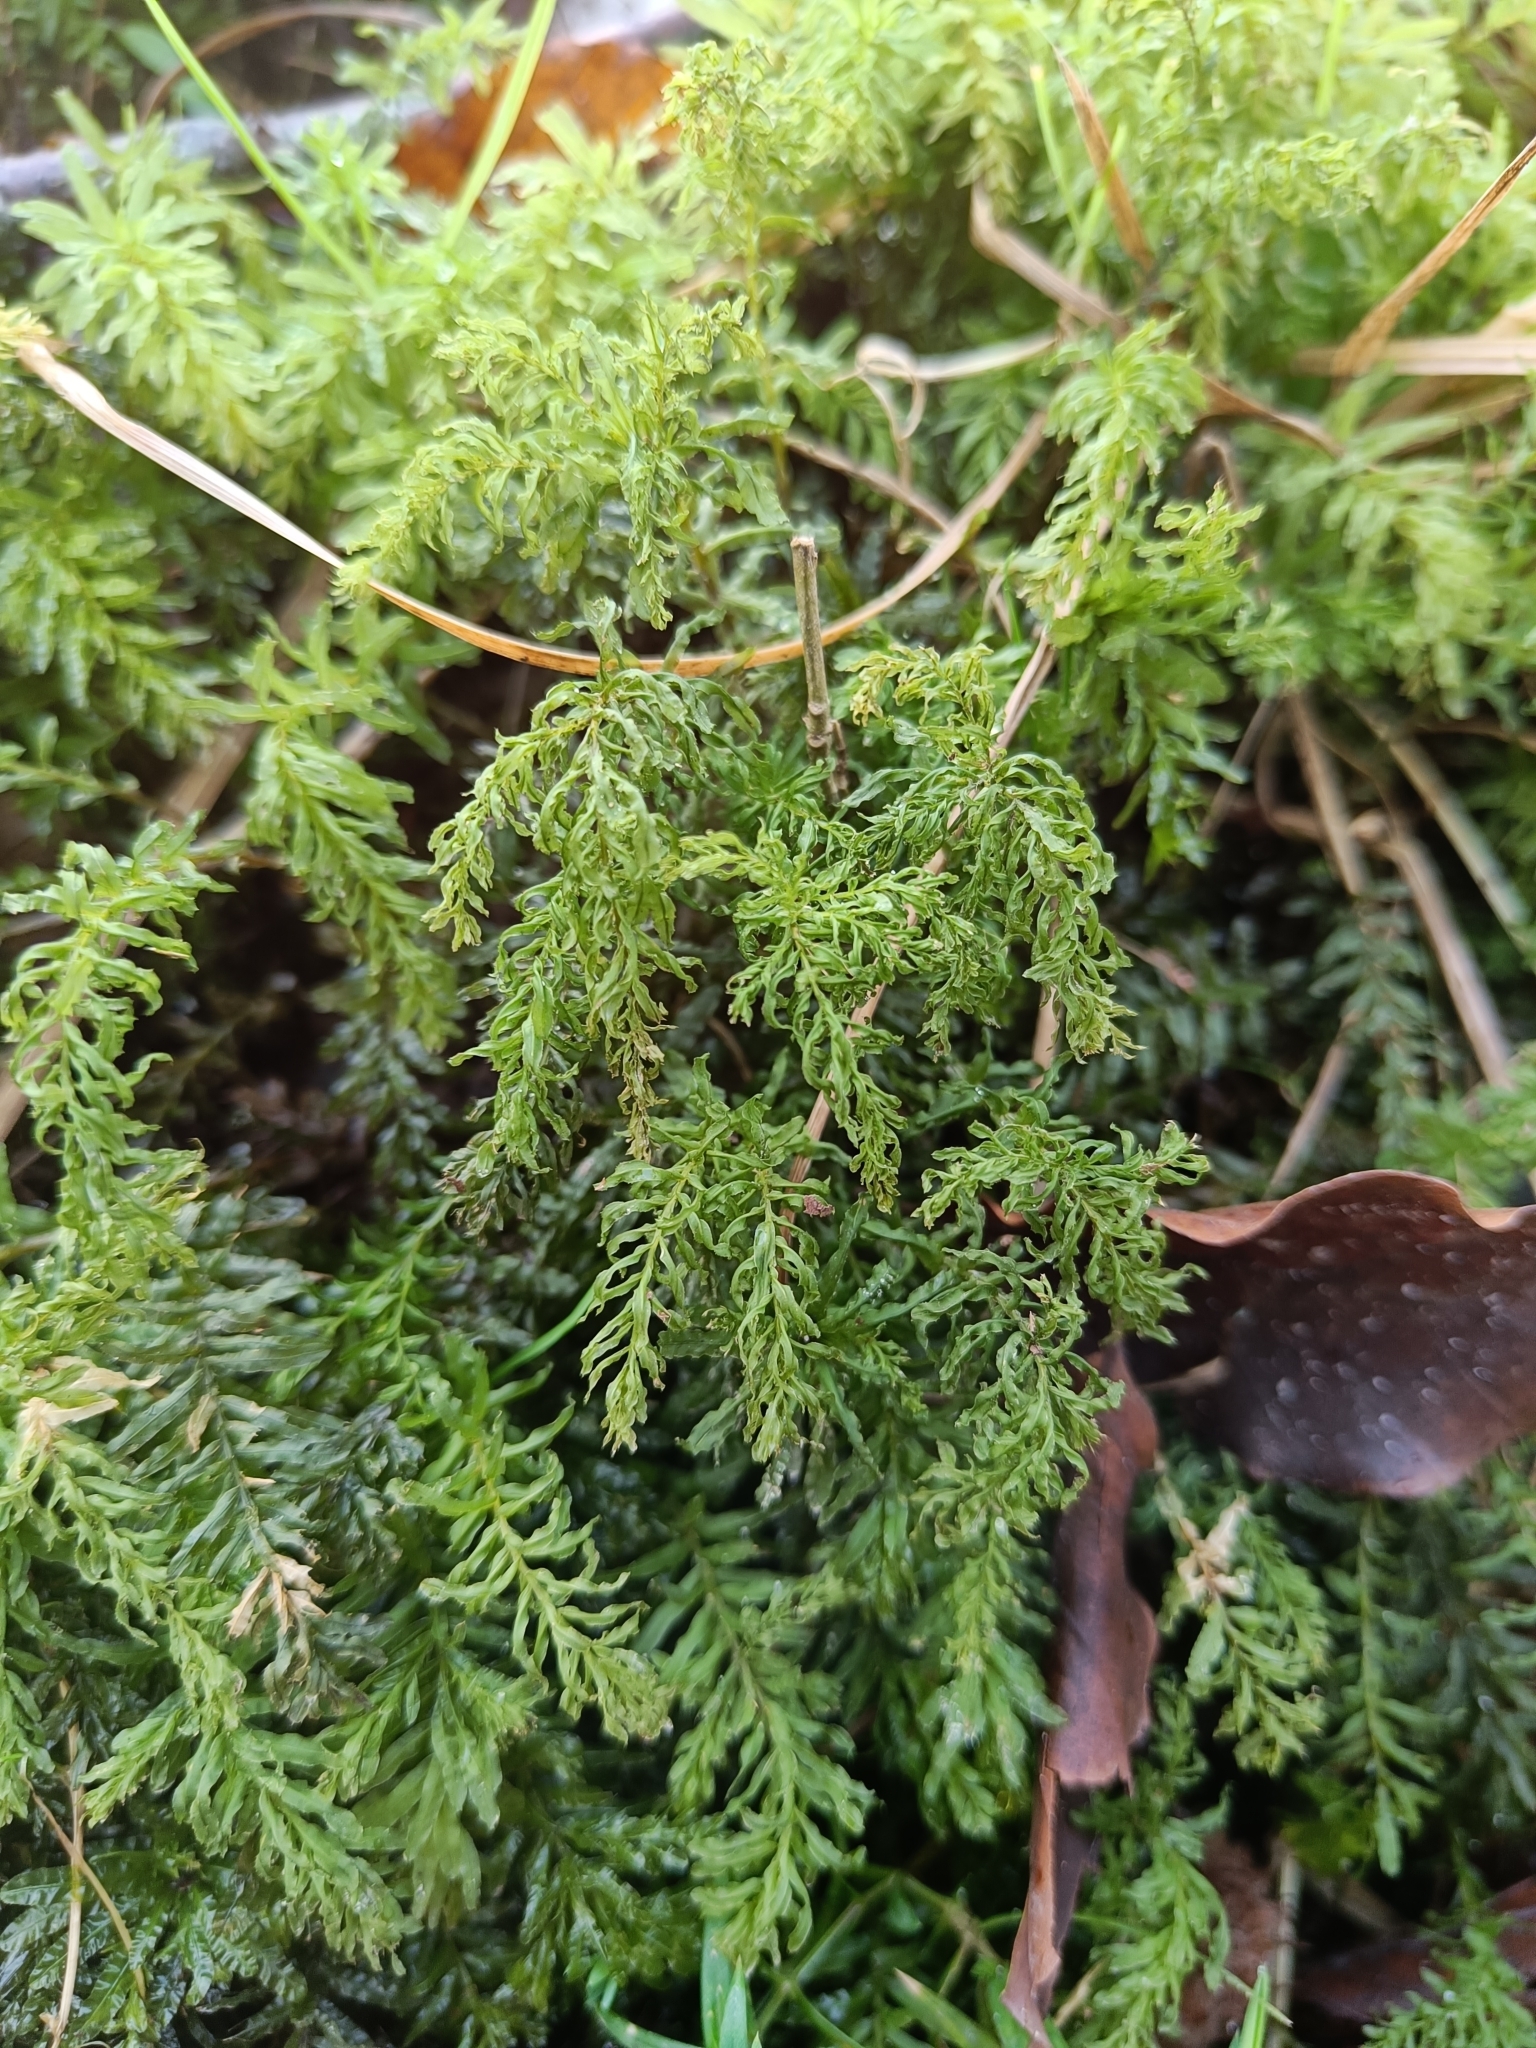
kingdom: Plantae
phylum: Bryophyta
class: Bryopsida
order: Bryales
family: Mniaceae
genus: Plagiomnium
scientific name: Plagiomnium undulatum
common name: Hart's-tongue thyme-moss
